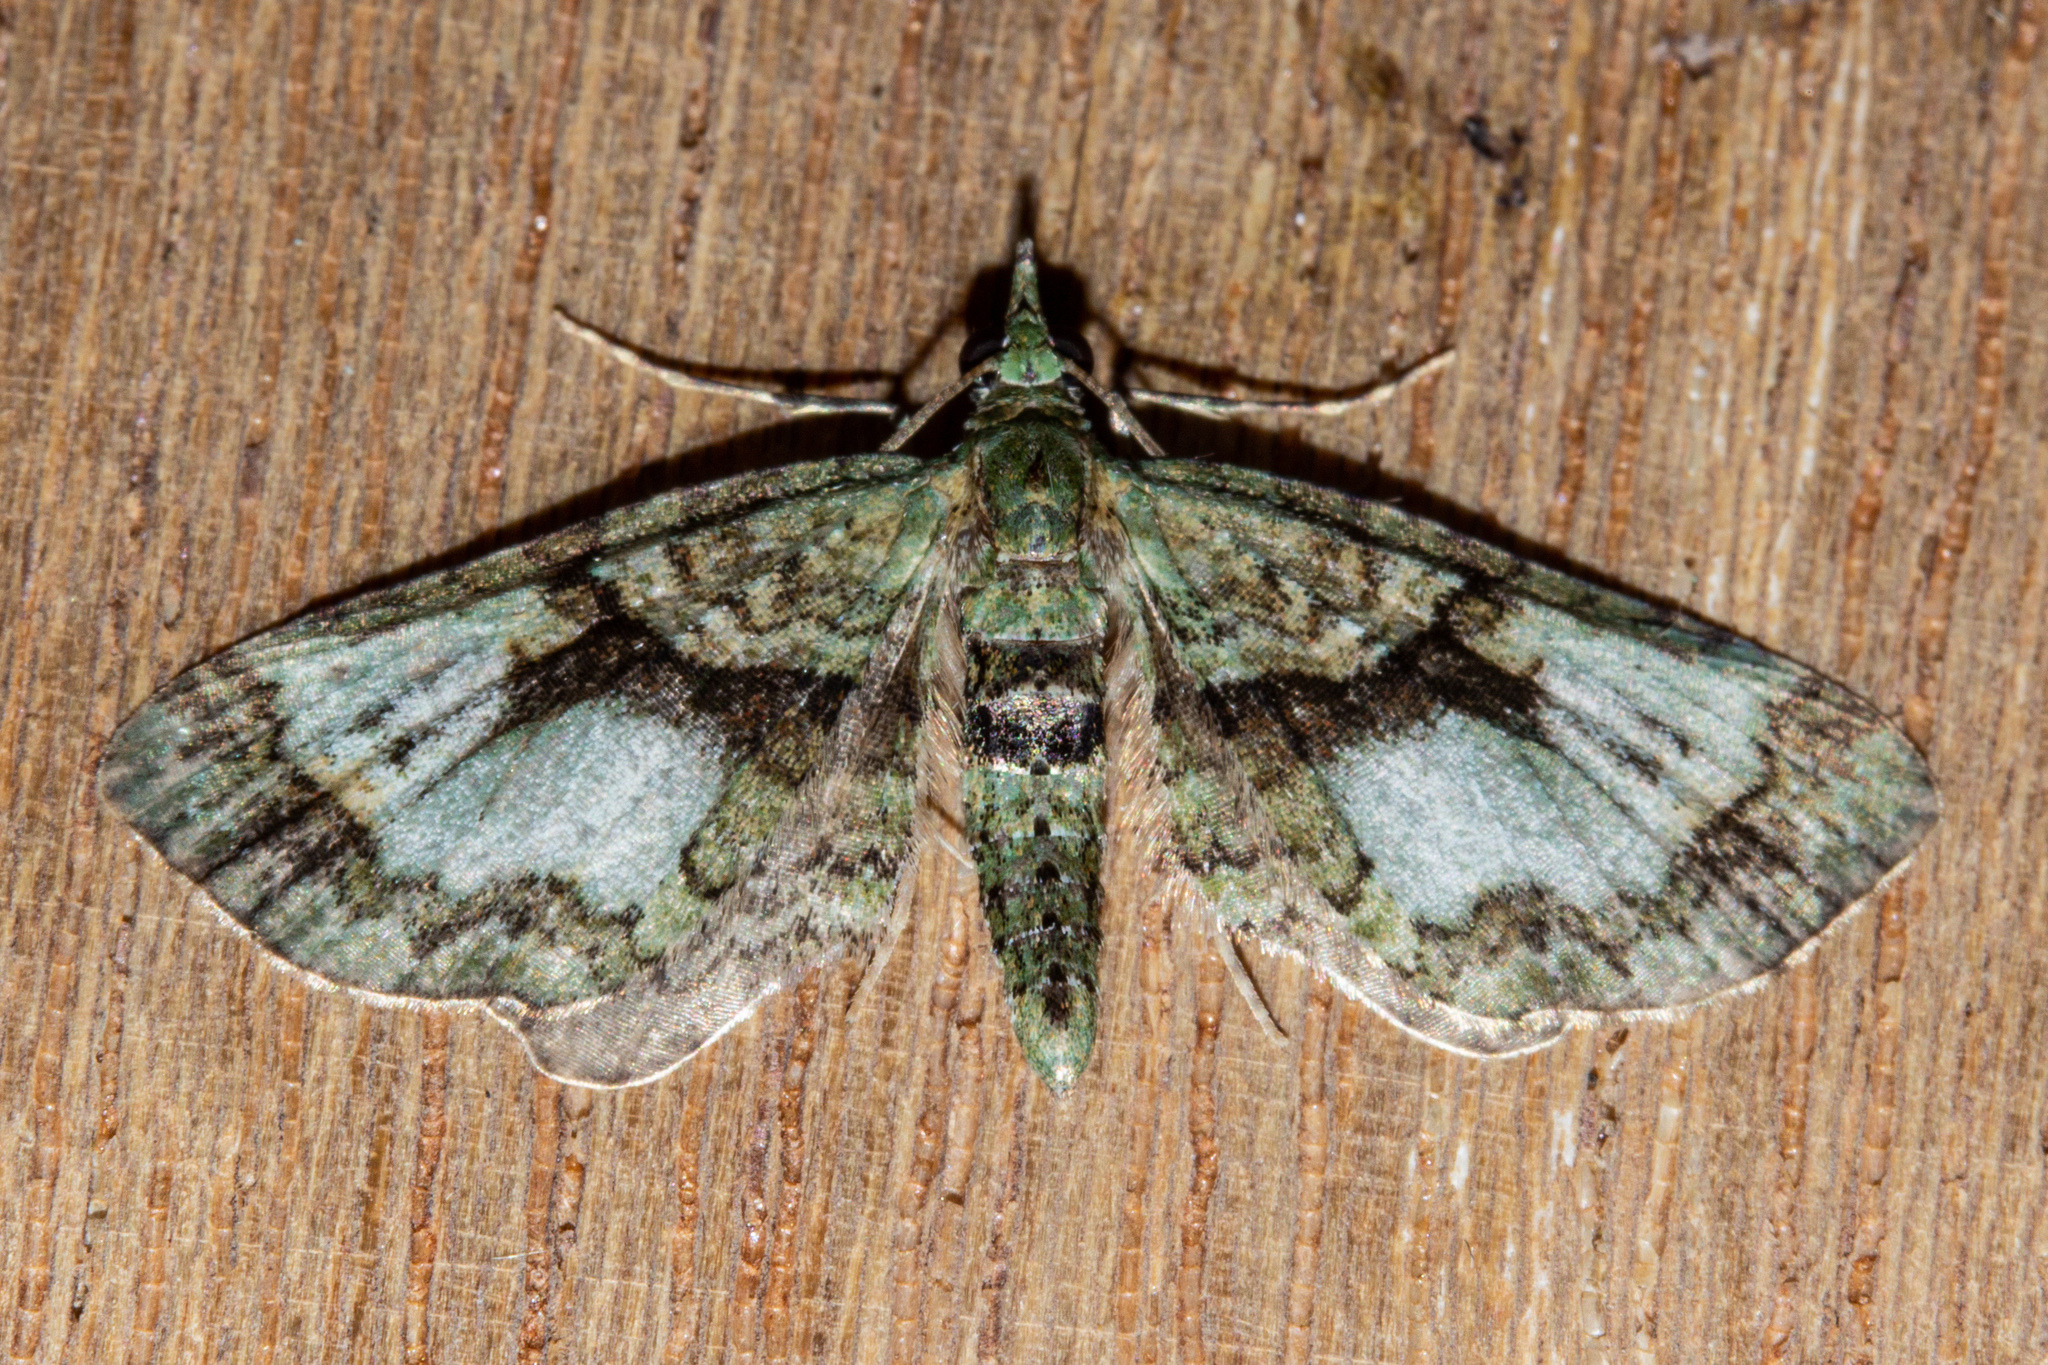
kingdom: Animalia
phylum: Arthropoda
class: Insecta
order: Lepidoptera
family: Geometridae
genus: Pasiphila
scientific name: Pasiphila suffusa
